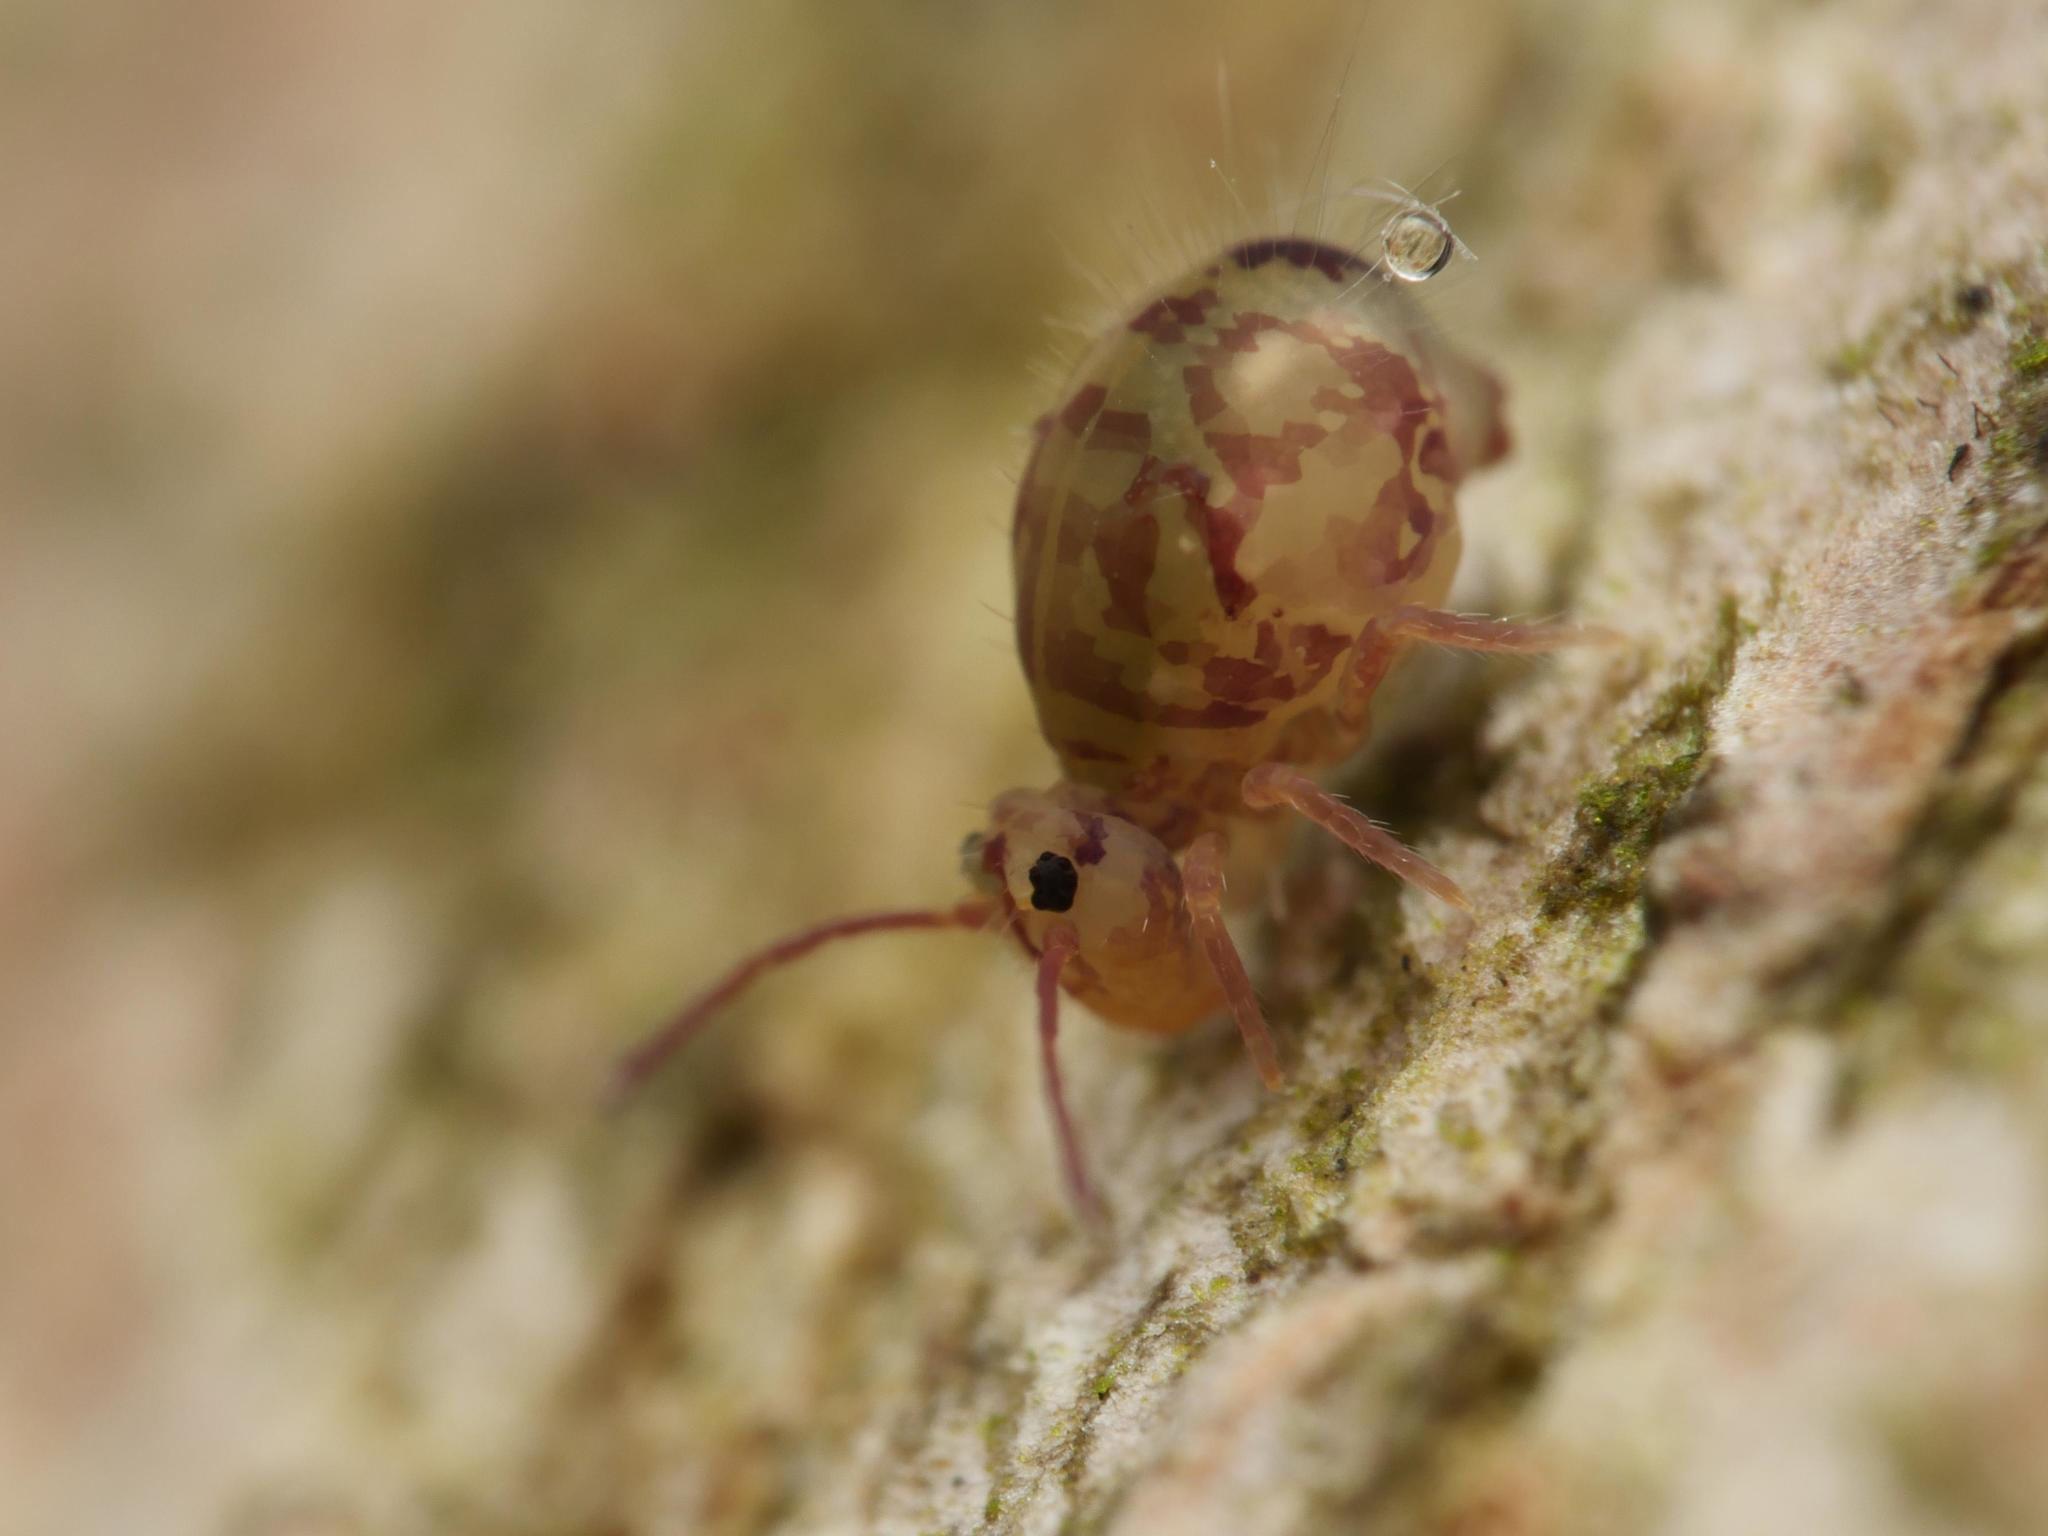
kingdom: Animalia
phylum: Arthropoda
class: Collembola
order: Symphypleona
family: Dicyrtomidae
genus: Dicyrtomina
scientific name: Dicyrtomina ornata
